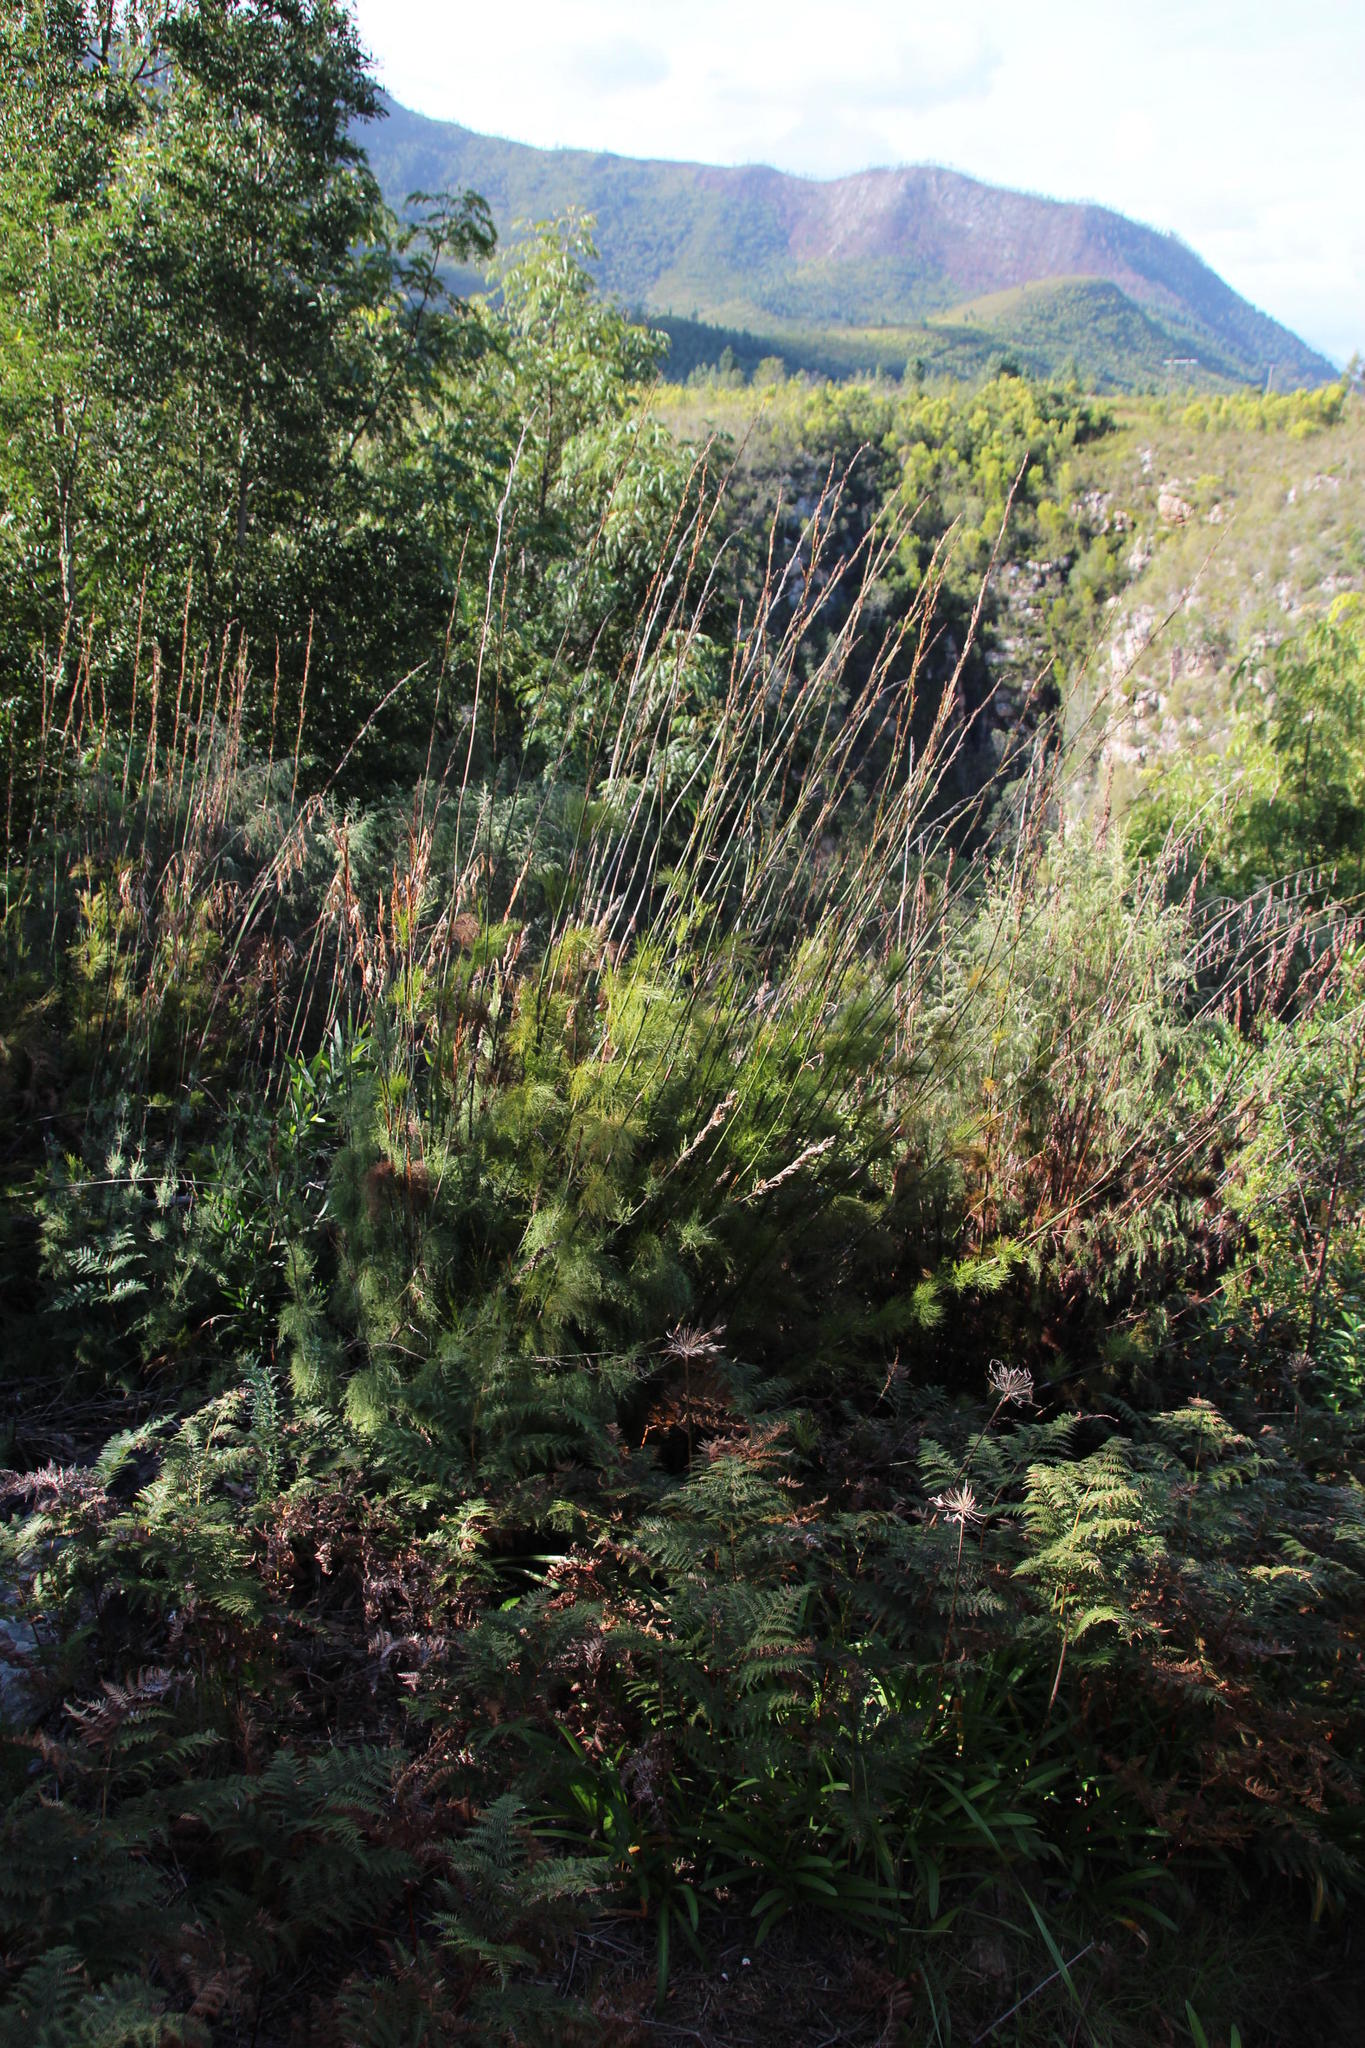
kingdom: Plantae
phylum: Tracheophyta
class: Liliopsida
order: Poales
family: Restionaceae
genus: Rhodocoma
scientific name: Rhodocoma gigantea
